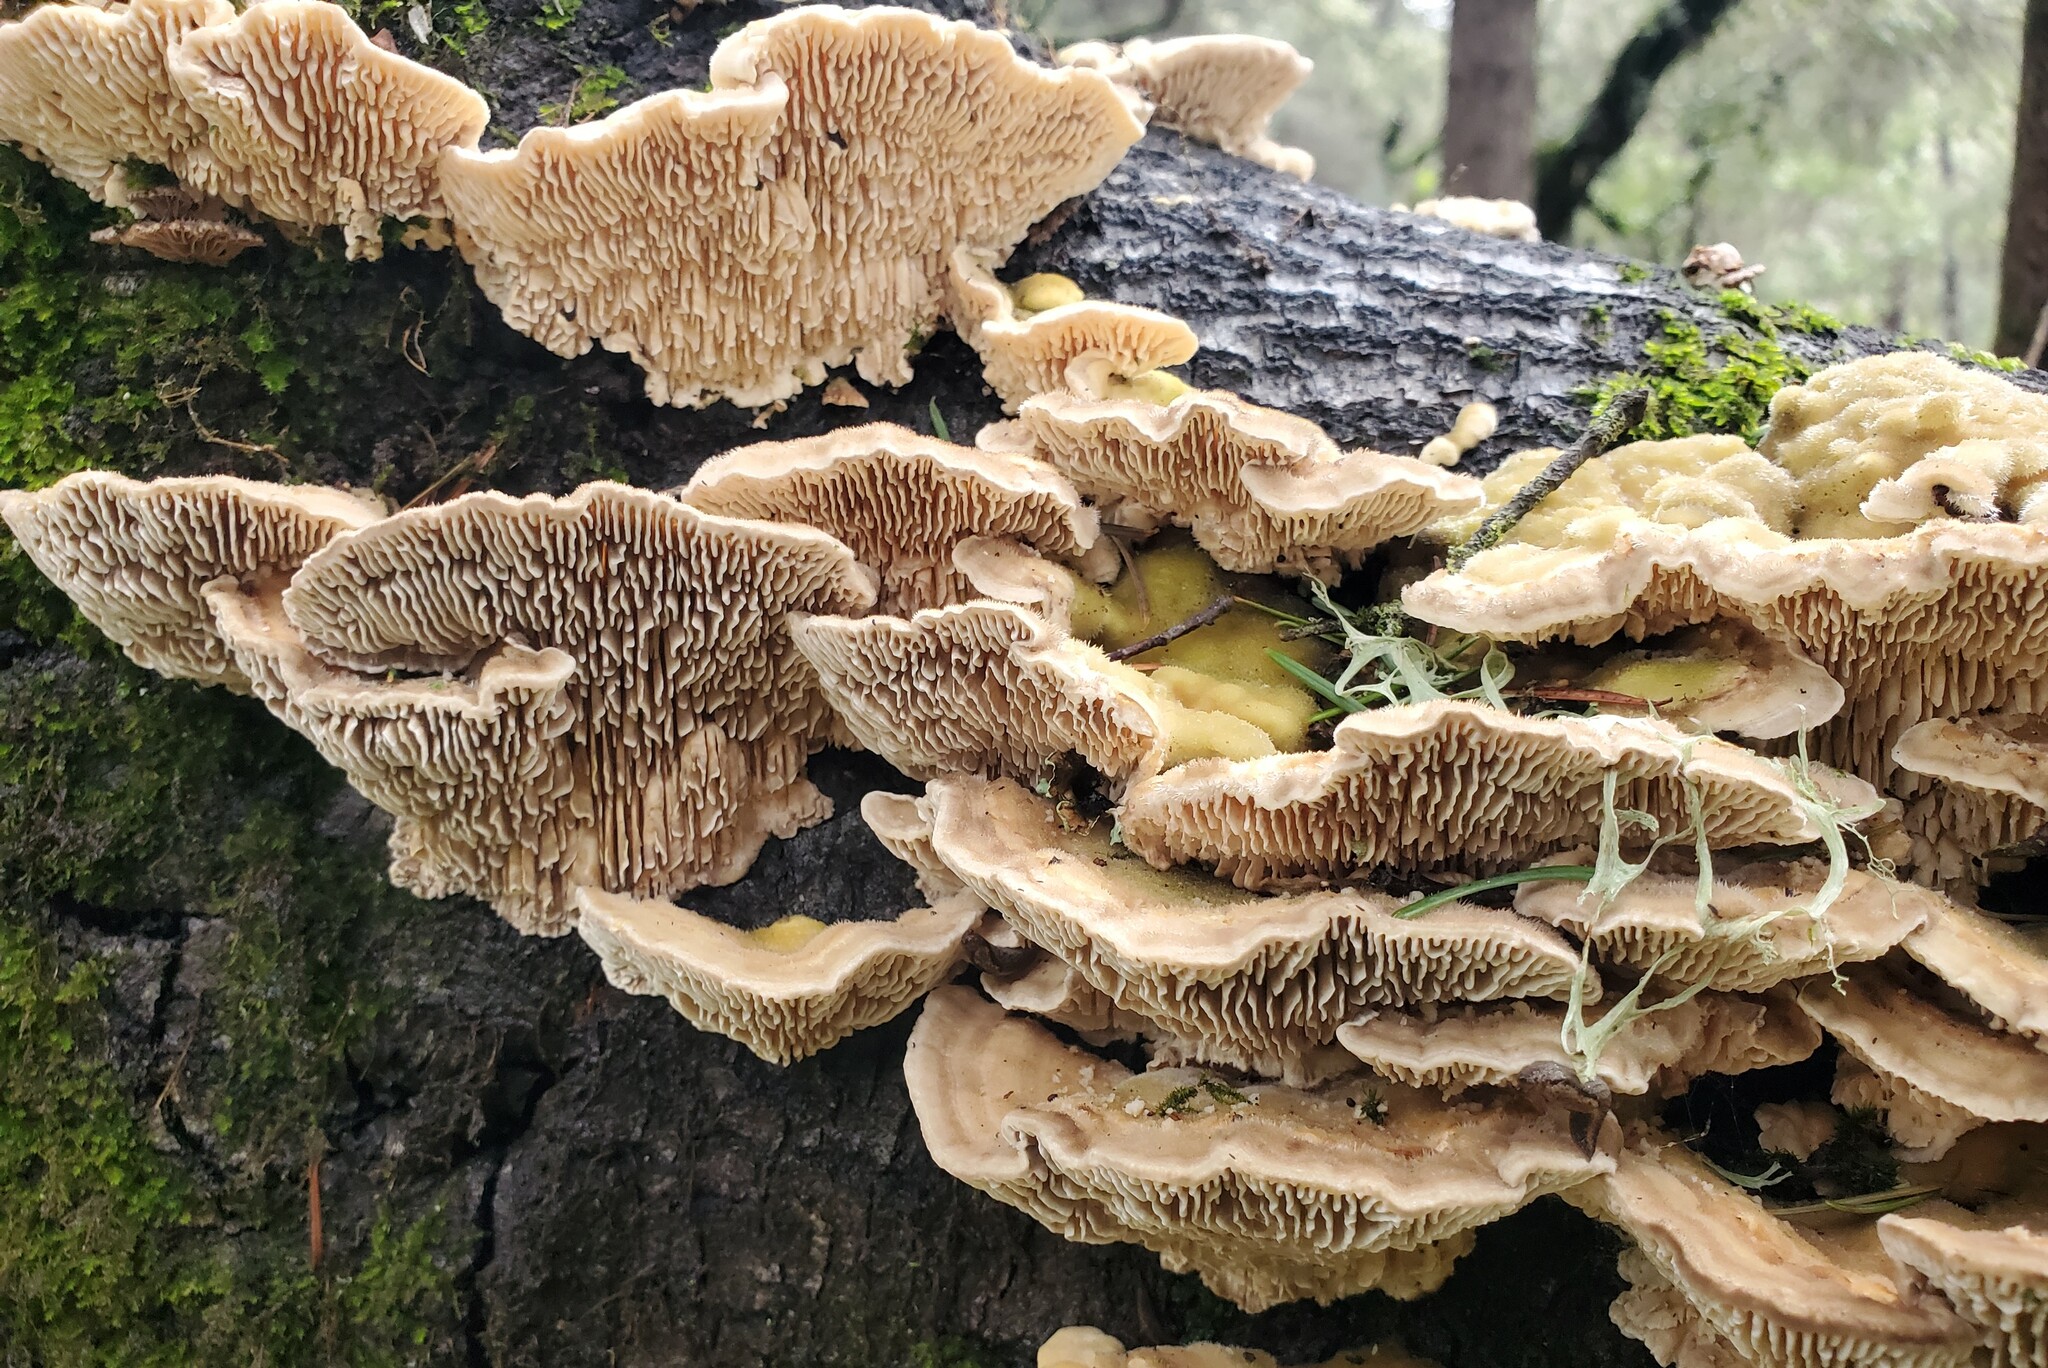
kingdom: Fungi
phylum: Basidiomycota
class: Agaricomycetes
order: Polyporales
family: Polyporaceae
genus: Lenzites
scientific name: Lenzites betulinus
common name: Birch mazegill
